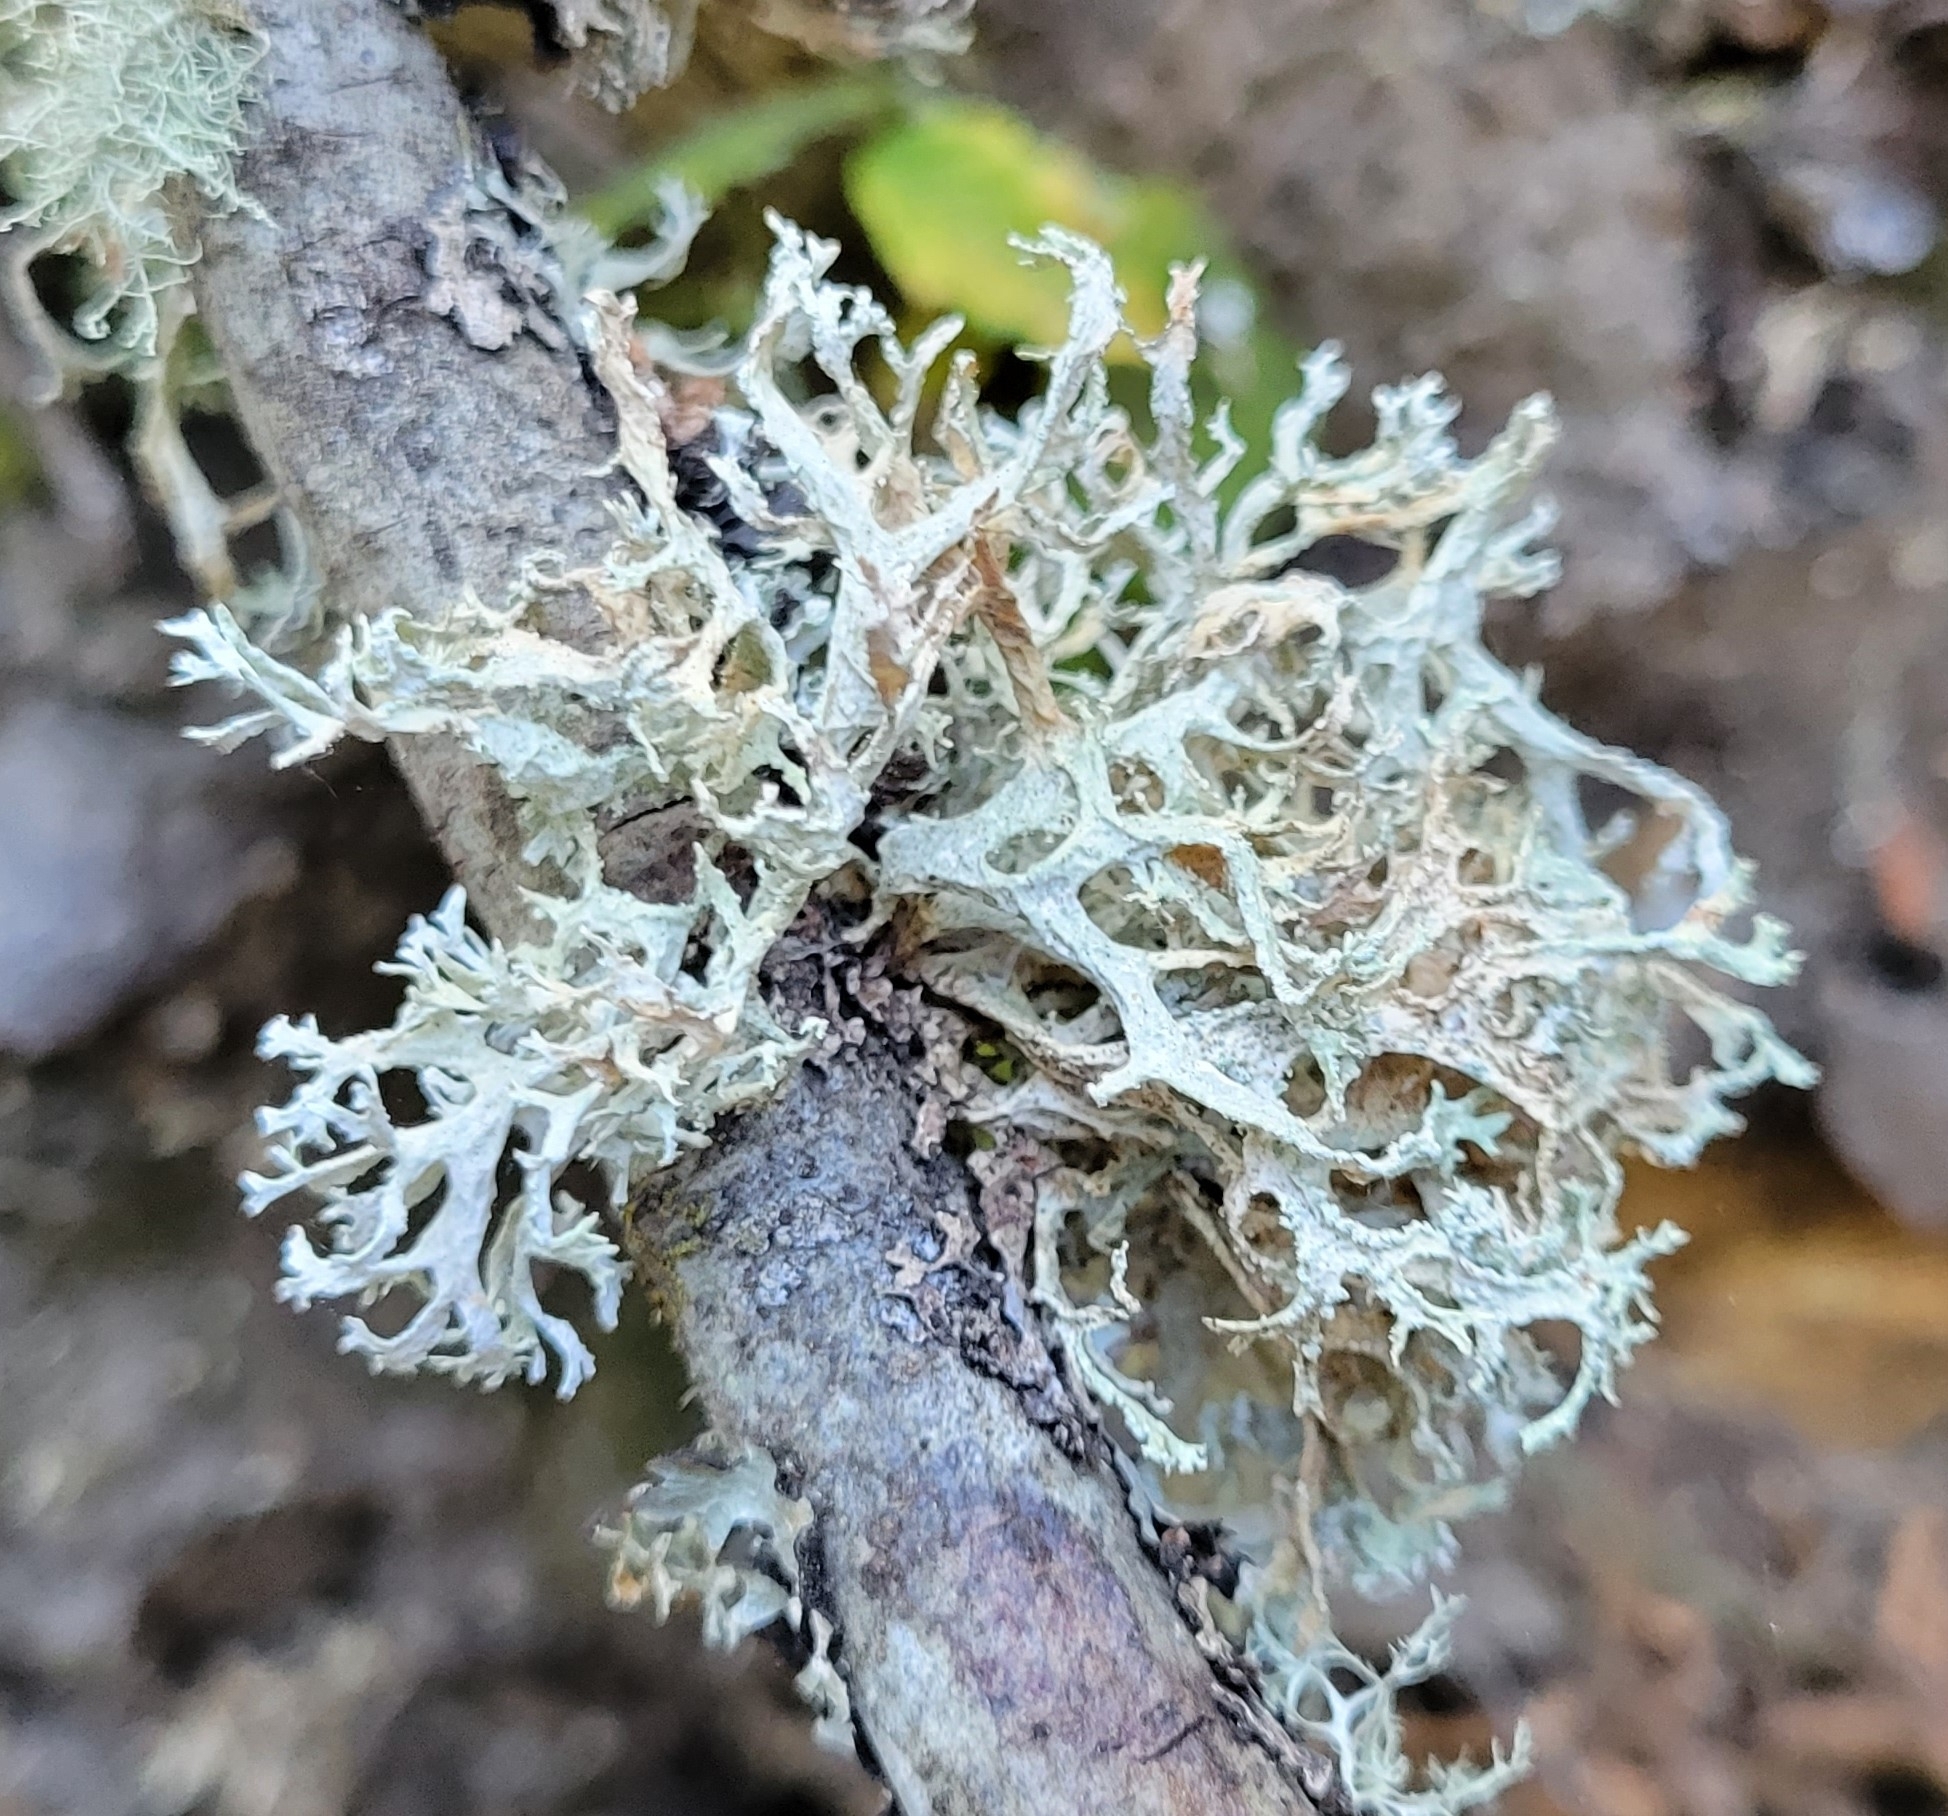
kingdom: Fungi
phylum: Ascomycota
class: Lecanoromycetes
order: Lecanorales
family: Parmeliaceae
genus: Evernia
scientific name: Evernia prunastri
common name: Oak moss
